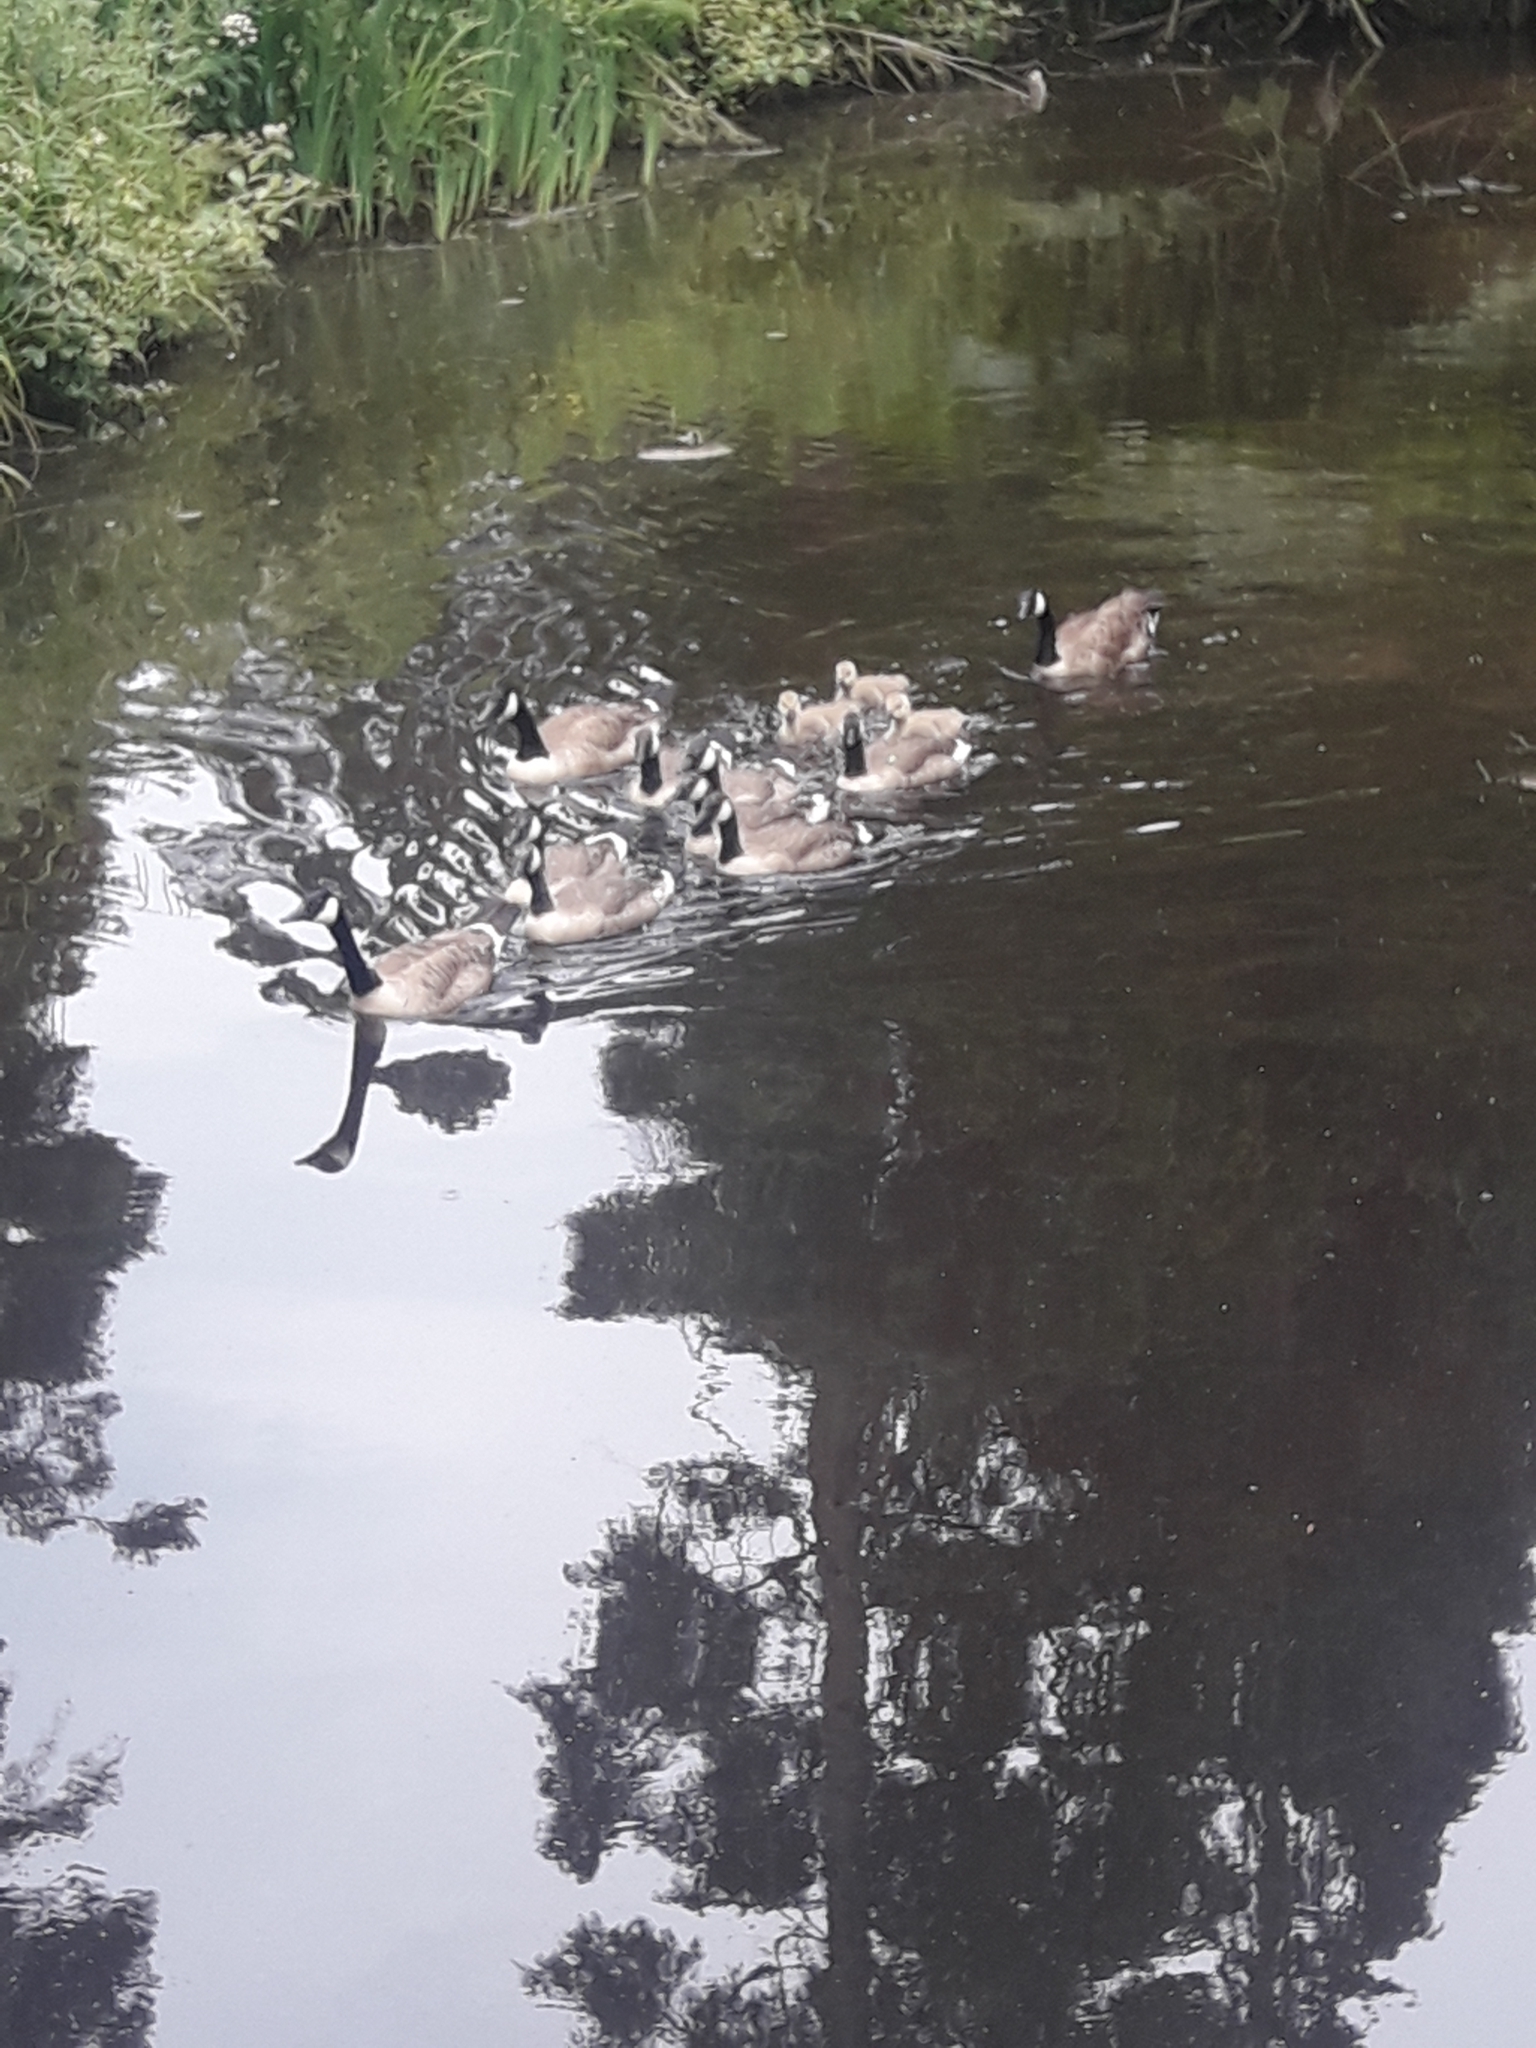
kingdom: Animalia
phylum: Chordata
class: Aves
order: Anseriformes
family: Anatidae
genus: Branta
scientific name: Branta canadensis
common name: Canada goose
